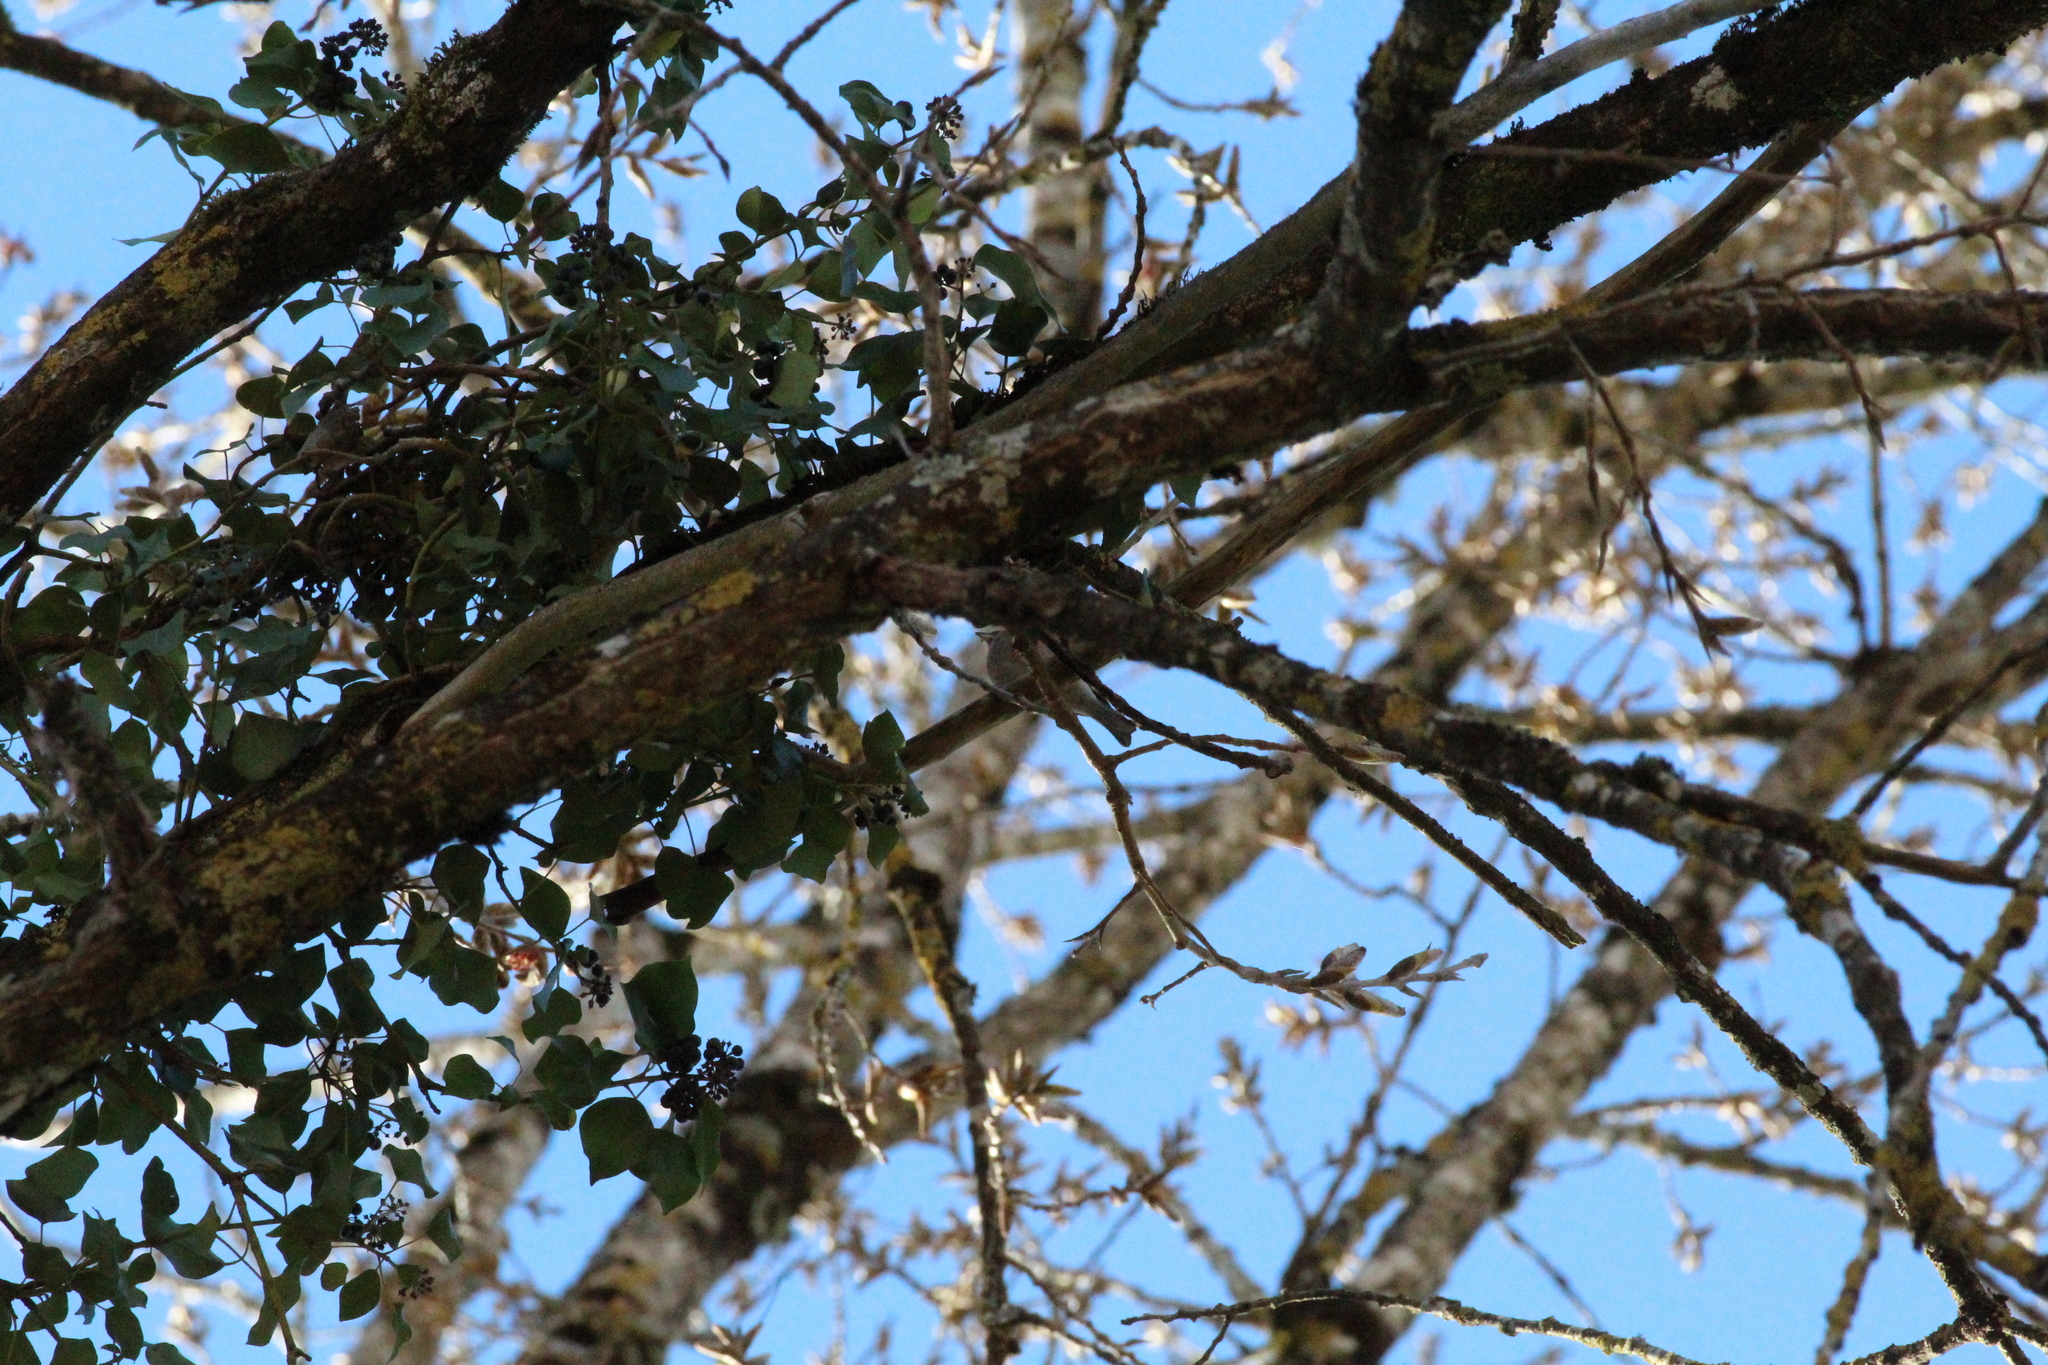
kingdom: Animalia
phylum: Chordata
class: Aves
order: Passeriformes
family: Fringillidae
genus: Fringilla
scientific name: Fringilla coelebs
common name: Common chaffinch
